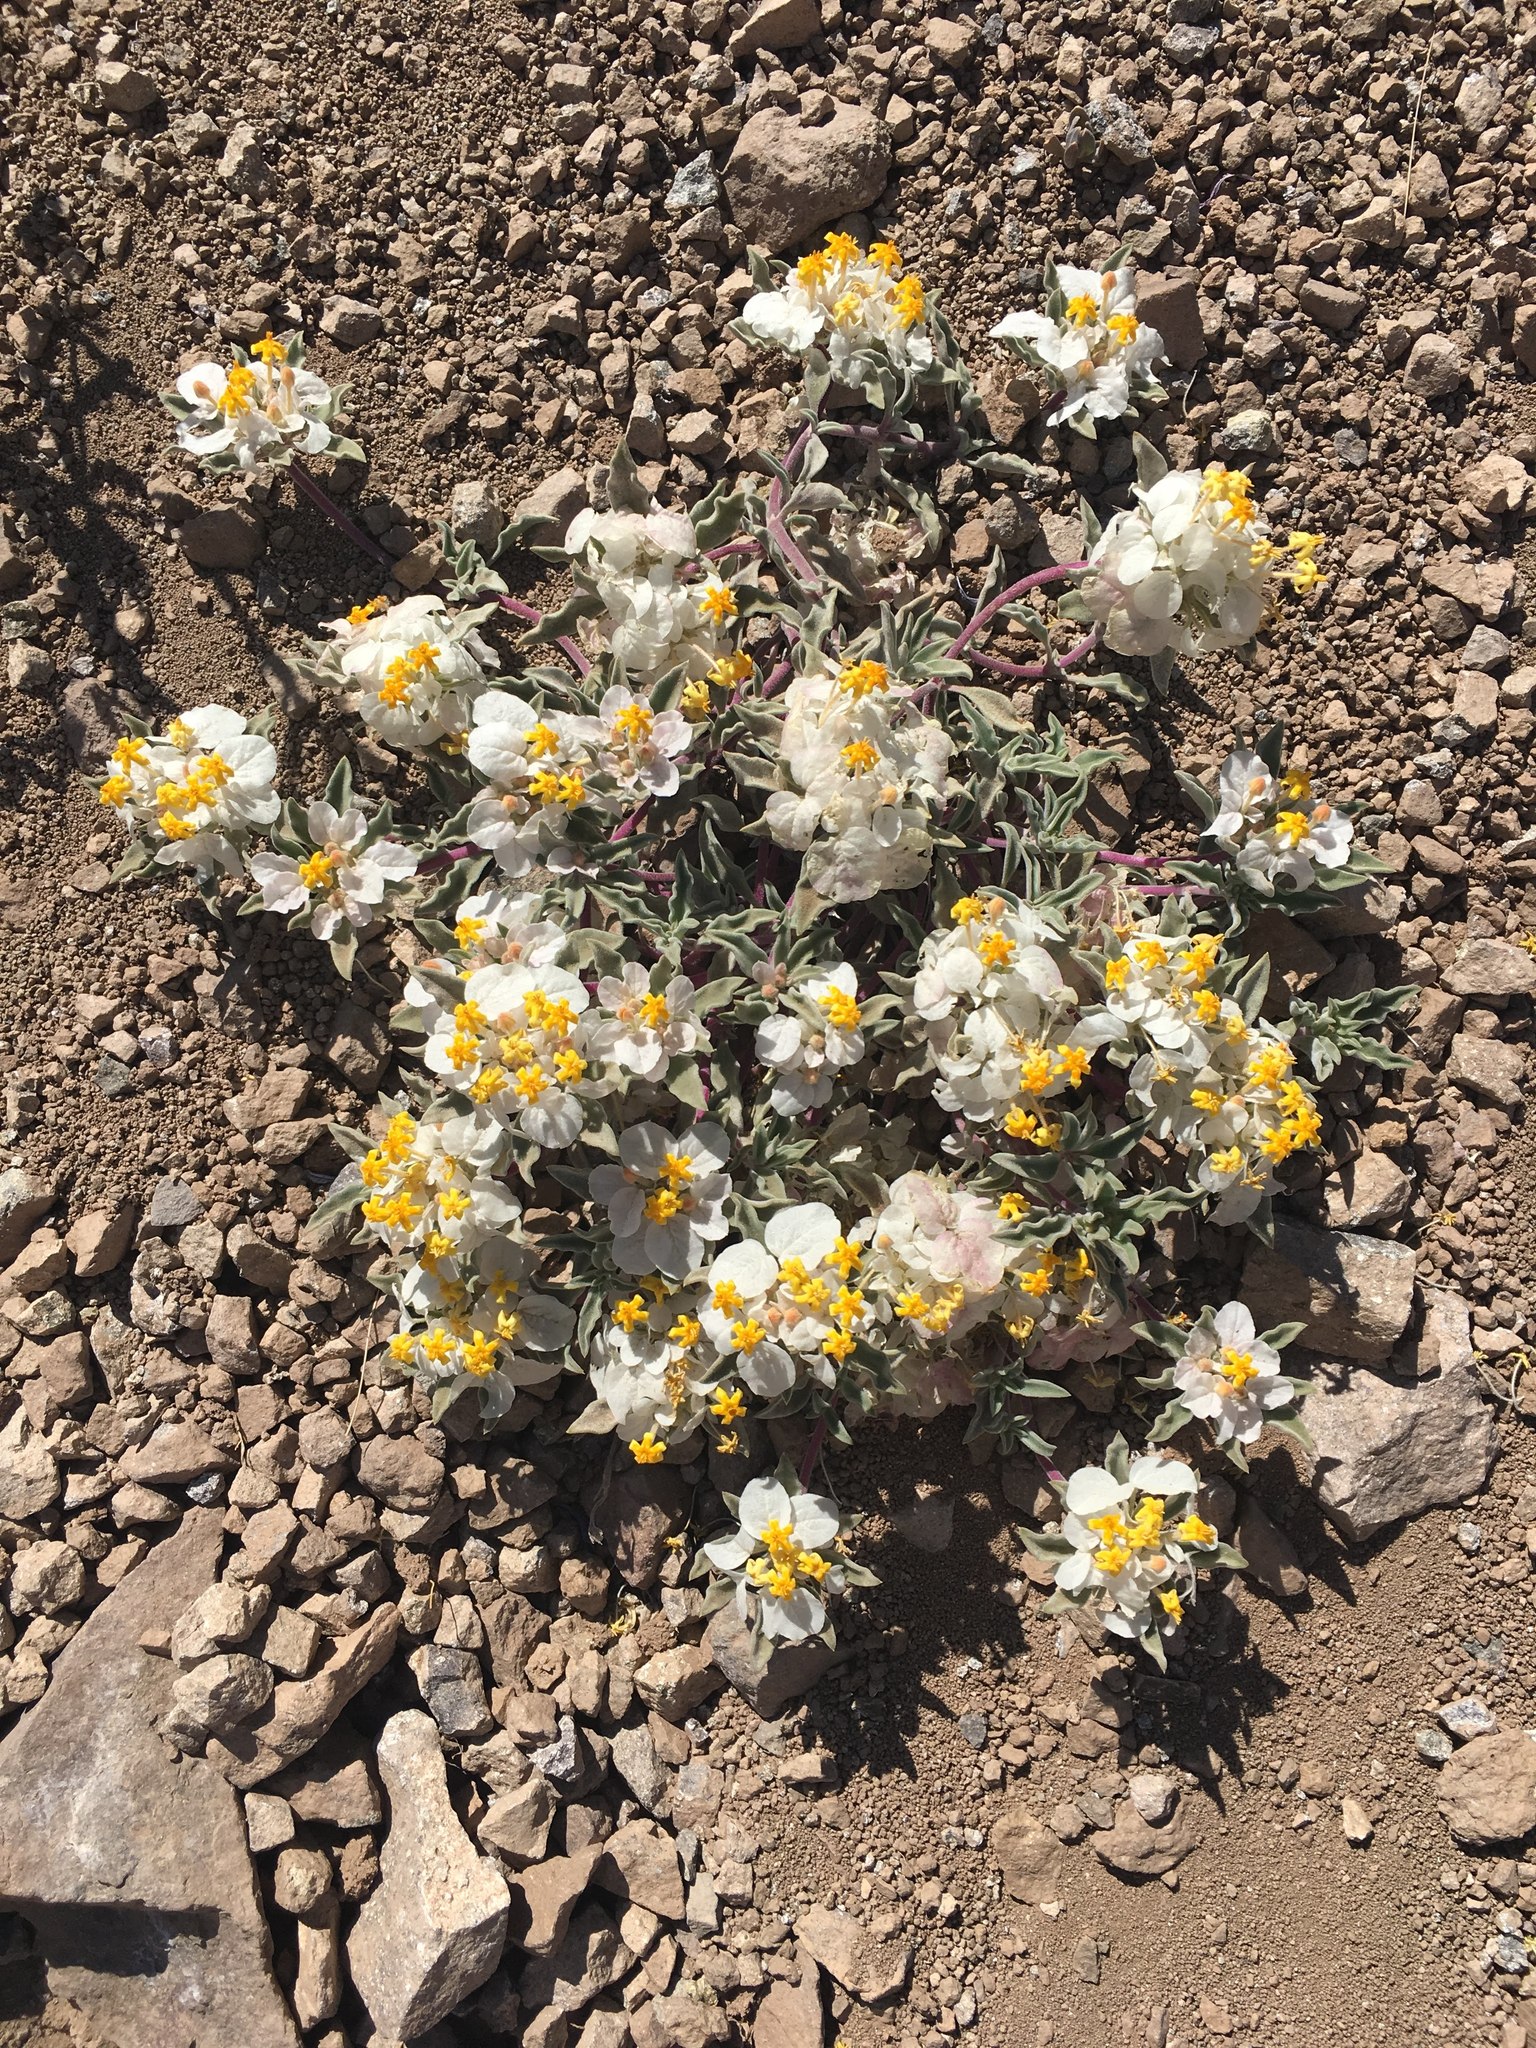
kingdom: Plantae
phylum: Tracheophyta
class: Magnoliopsida
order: Gentianales
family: Rubiaceae
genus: Cruckshanksia
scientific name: Cruckshanksia hymenodon
